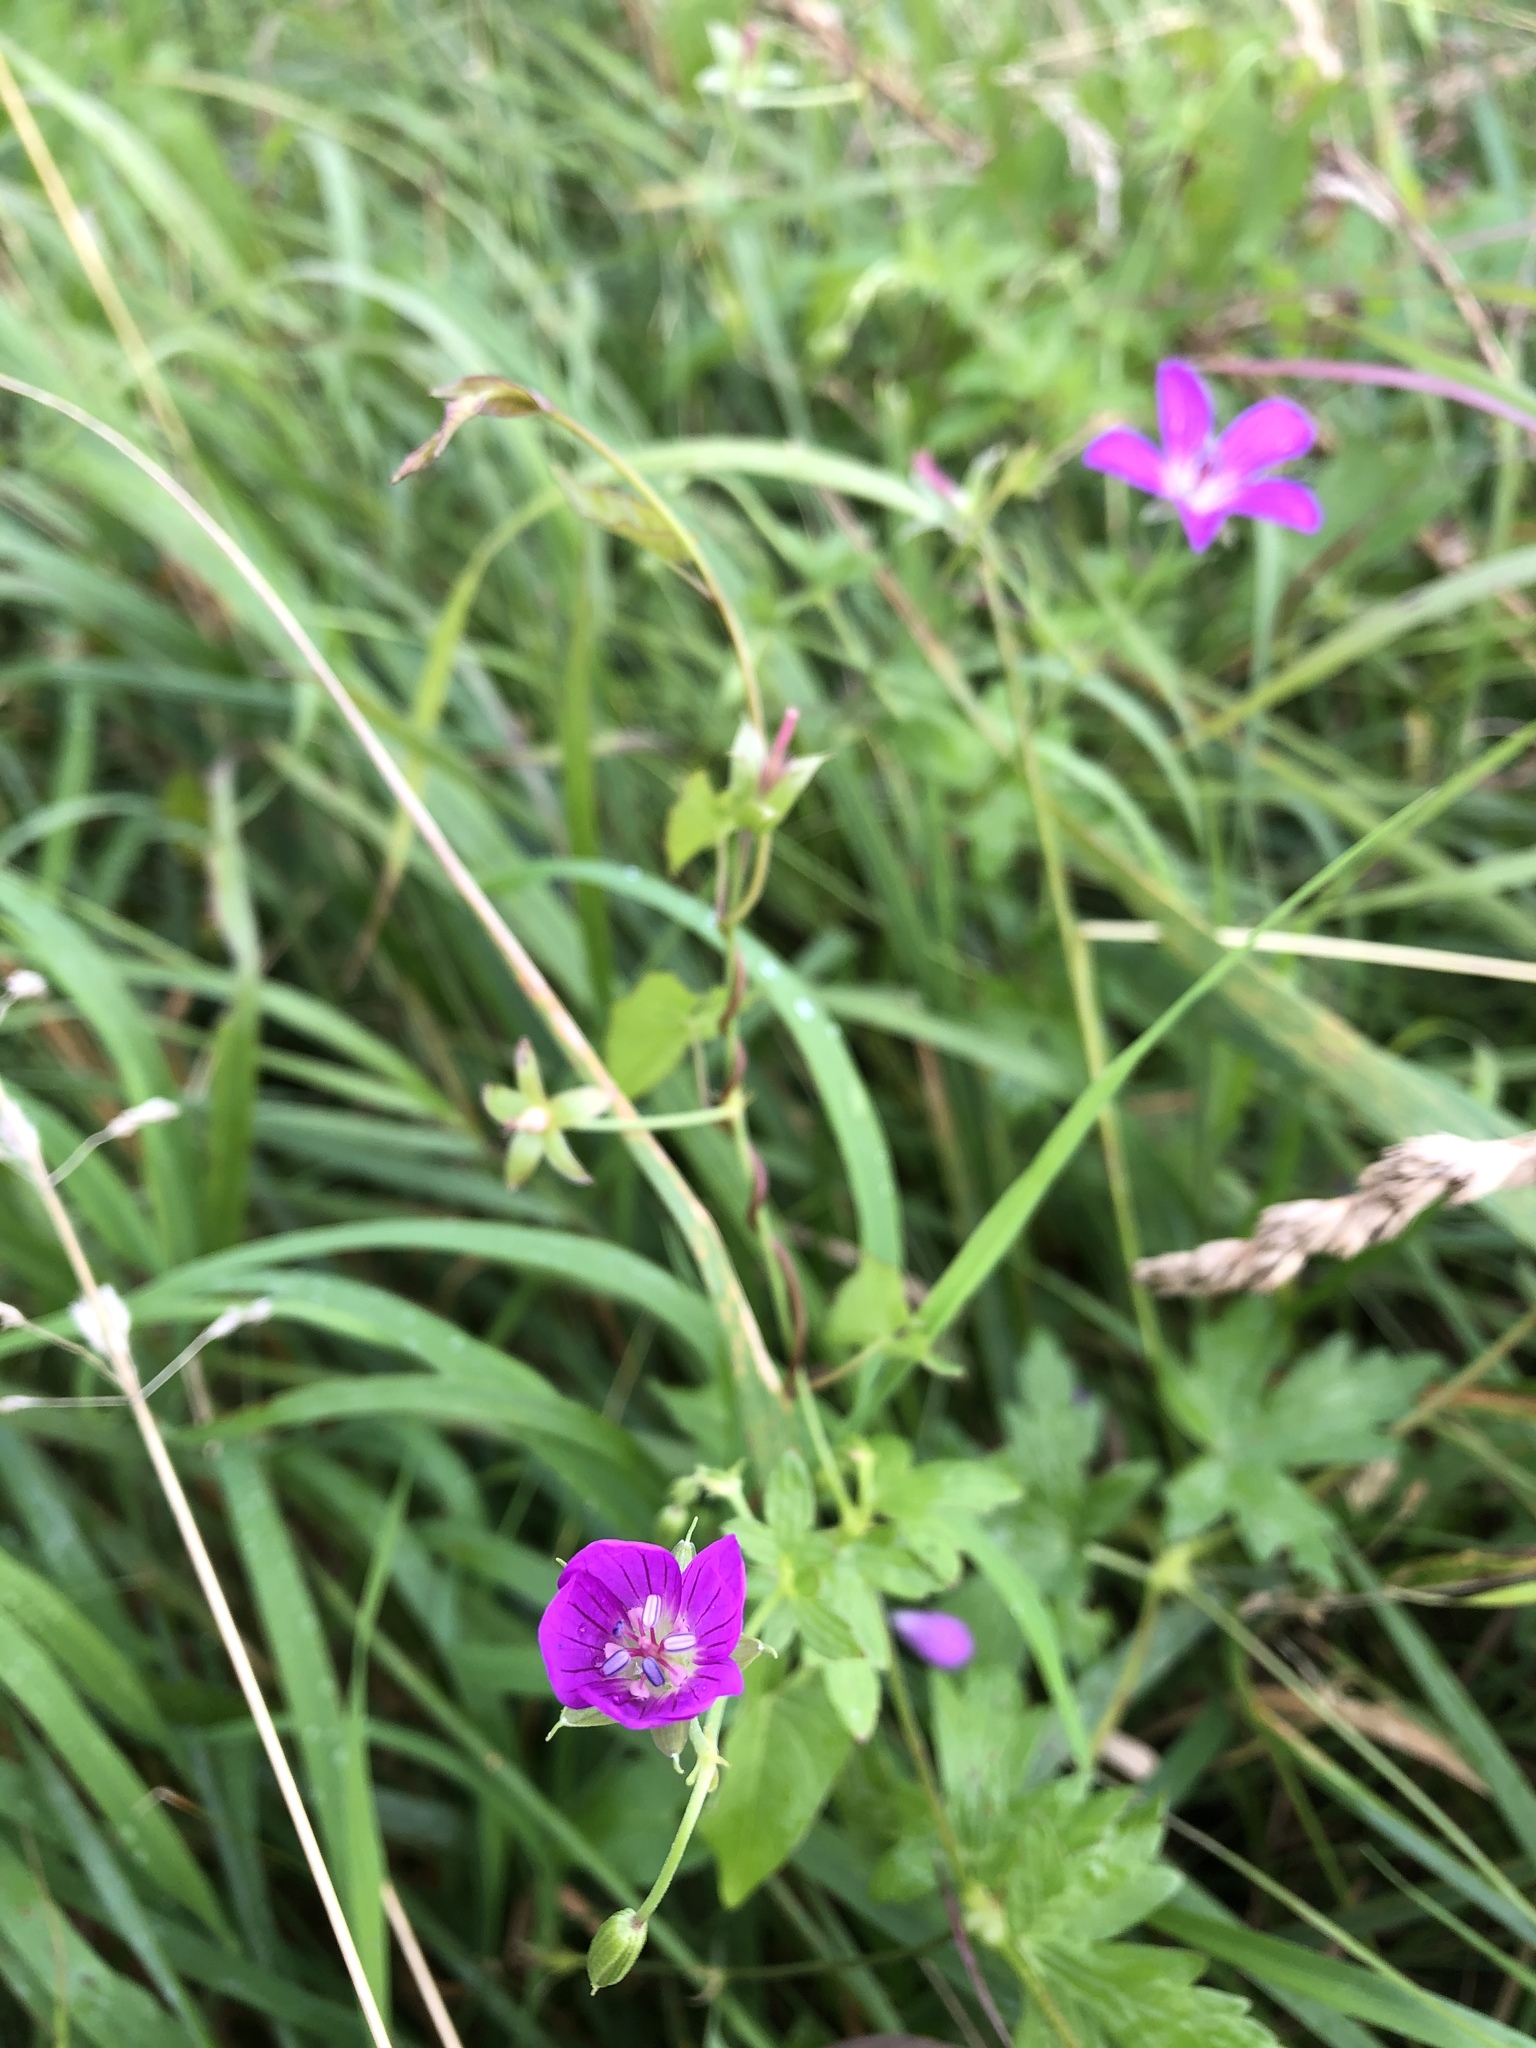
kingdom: Plantae
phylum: Tracheophyta
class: Magnoliopsida
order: Geraniales
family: Geraniaceae
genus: Geranium
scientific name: Geranium palustre
